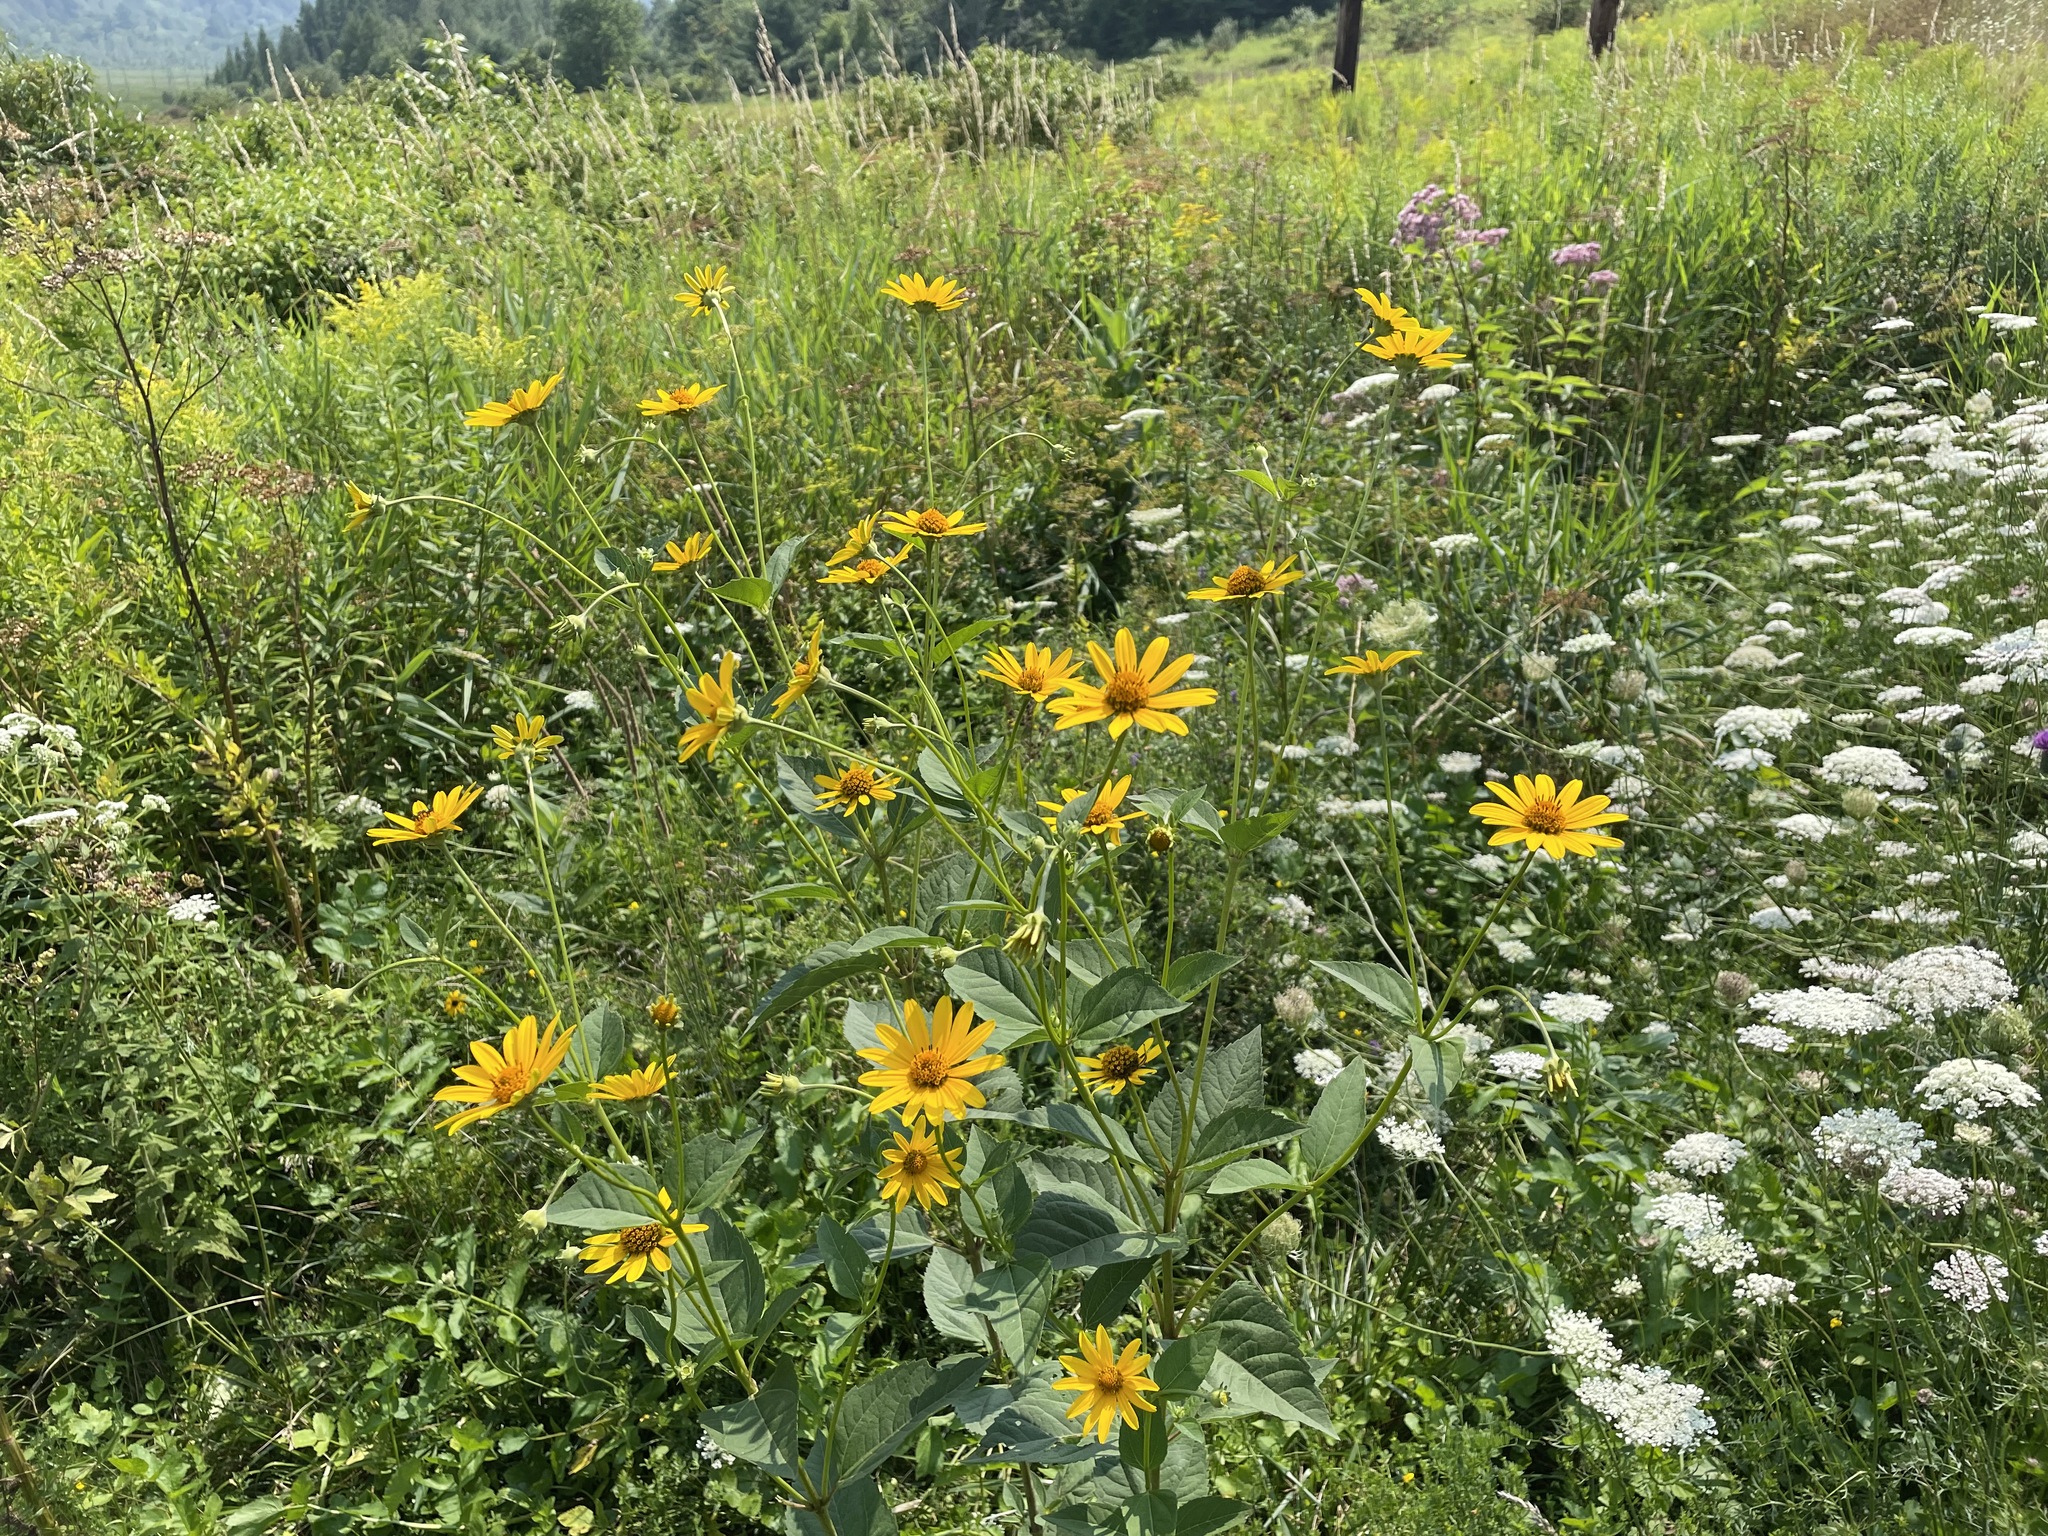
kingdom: Plantae
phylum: Tracheophyta
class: Magnoliopsida
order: Asterales
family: Asteraceae
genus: Heliopsis
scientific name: Heliopsis helianthoides
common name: False sunflower
